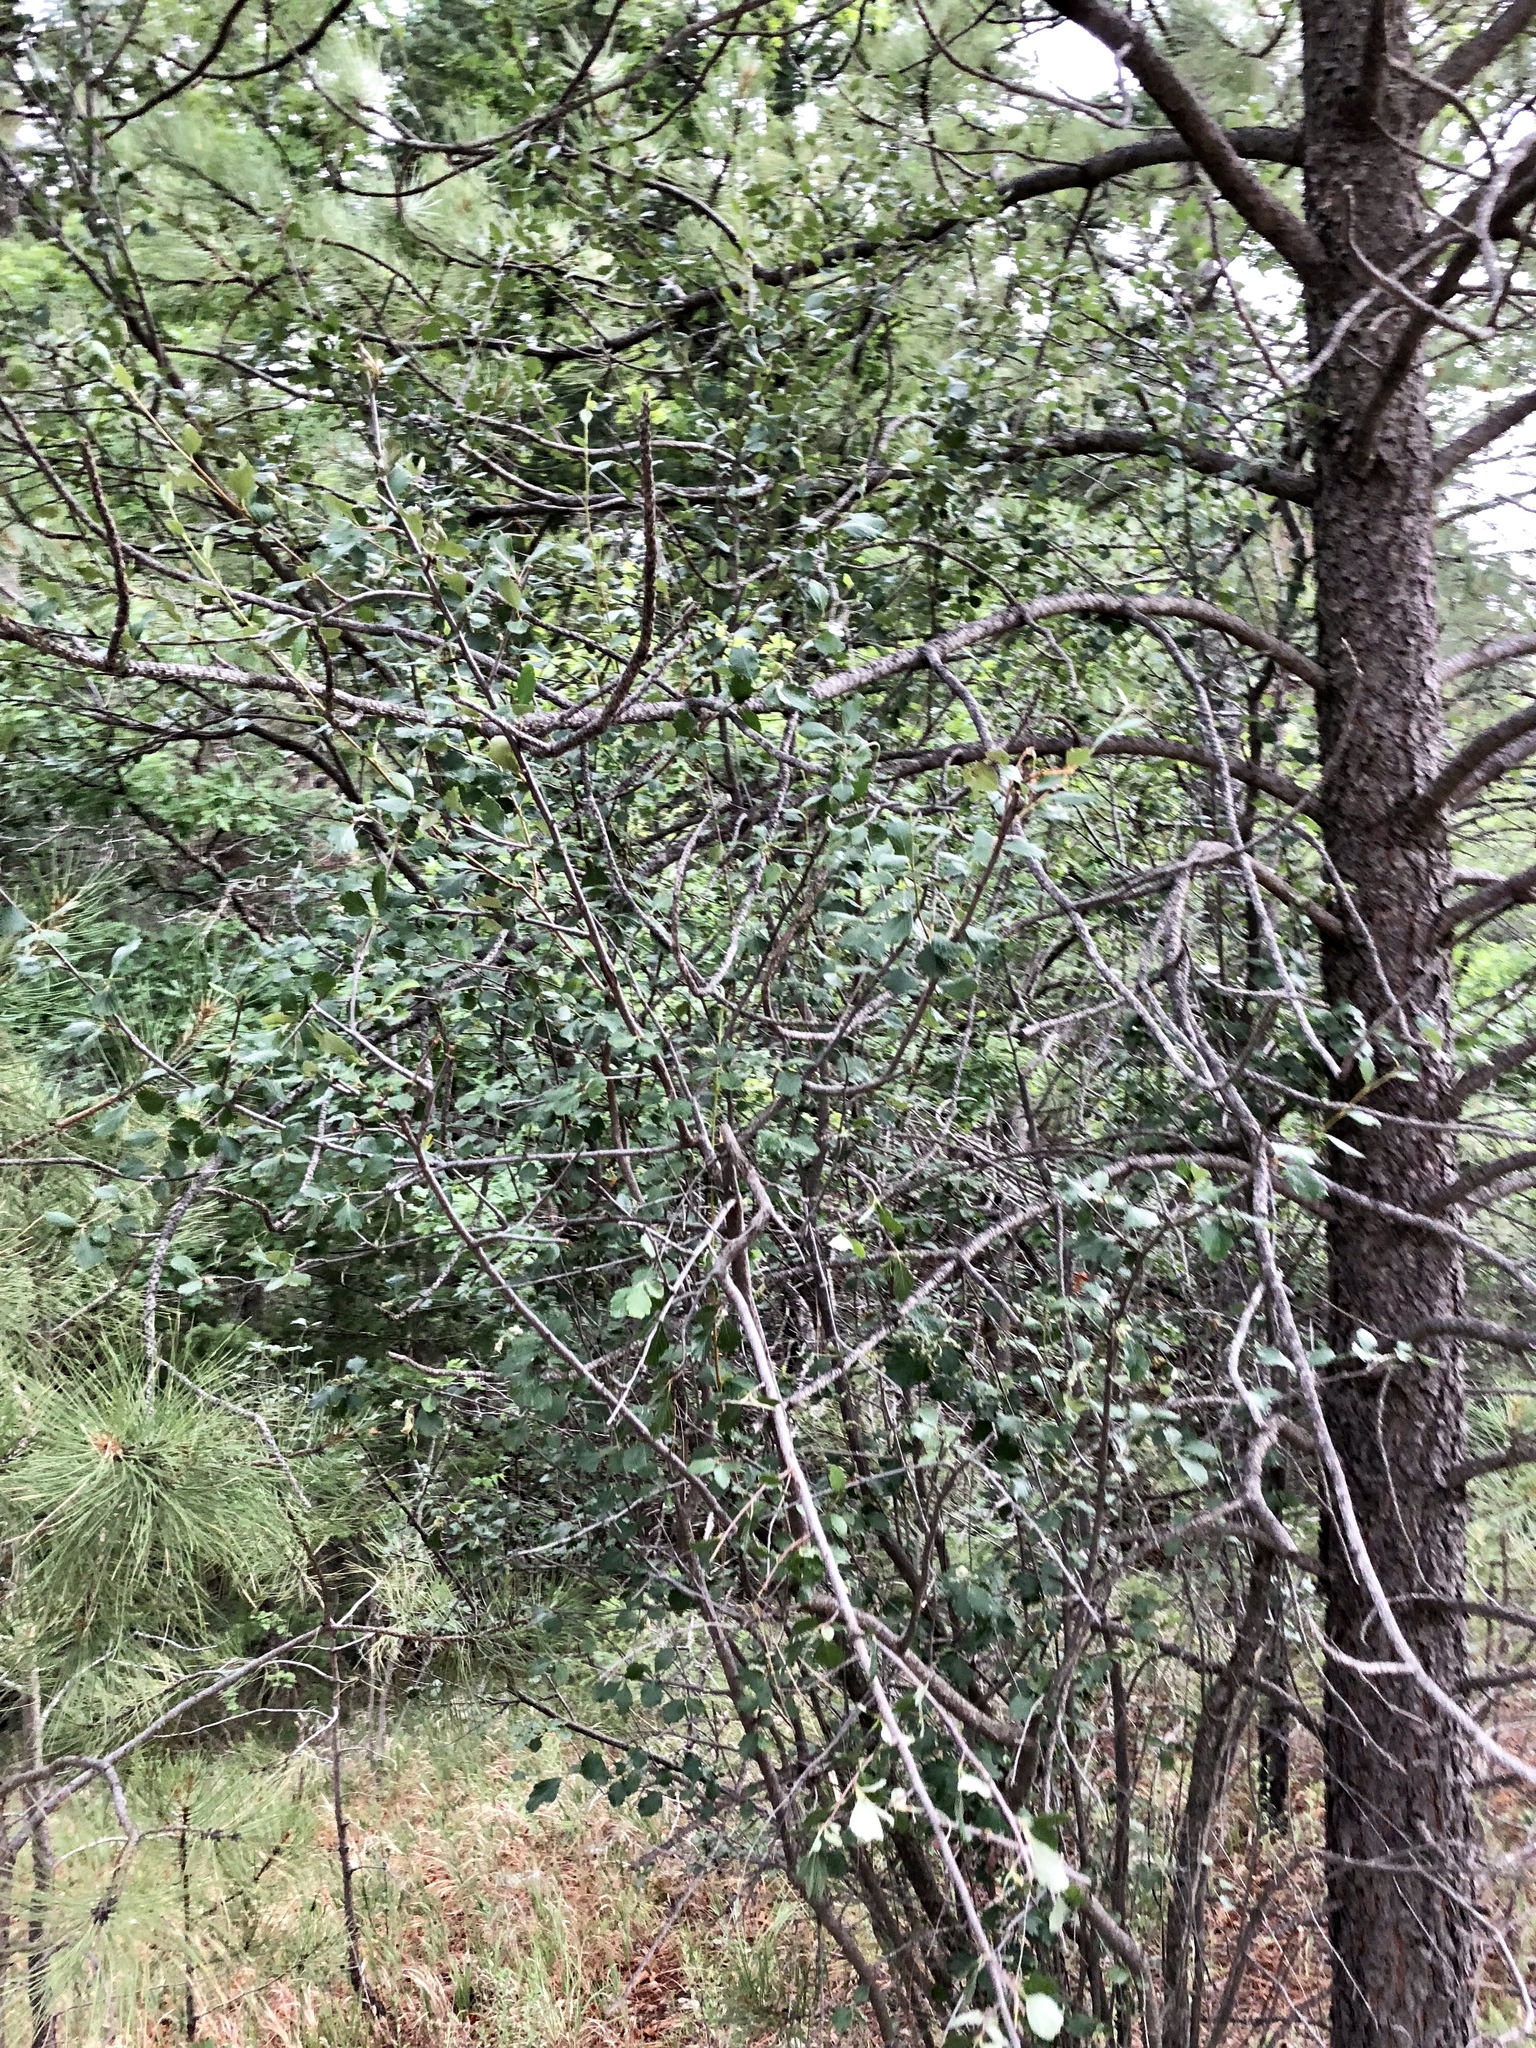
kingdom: Plantae
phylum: Tracheophyta
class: Magnoliopsida
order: Rosales
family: Rosaceae
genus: Cercocarpus
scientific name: Cercocarpus montanus
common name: Alder-leaf cercocarpus
